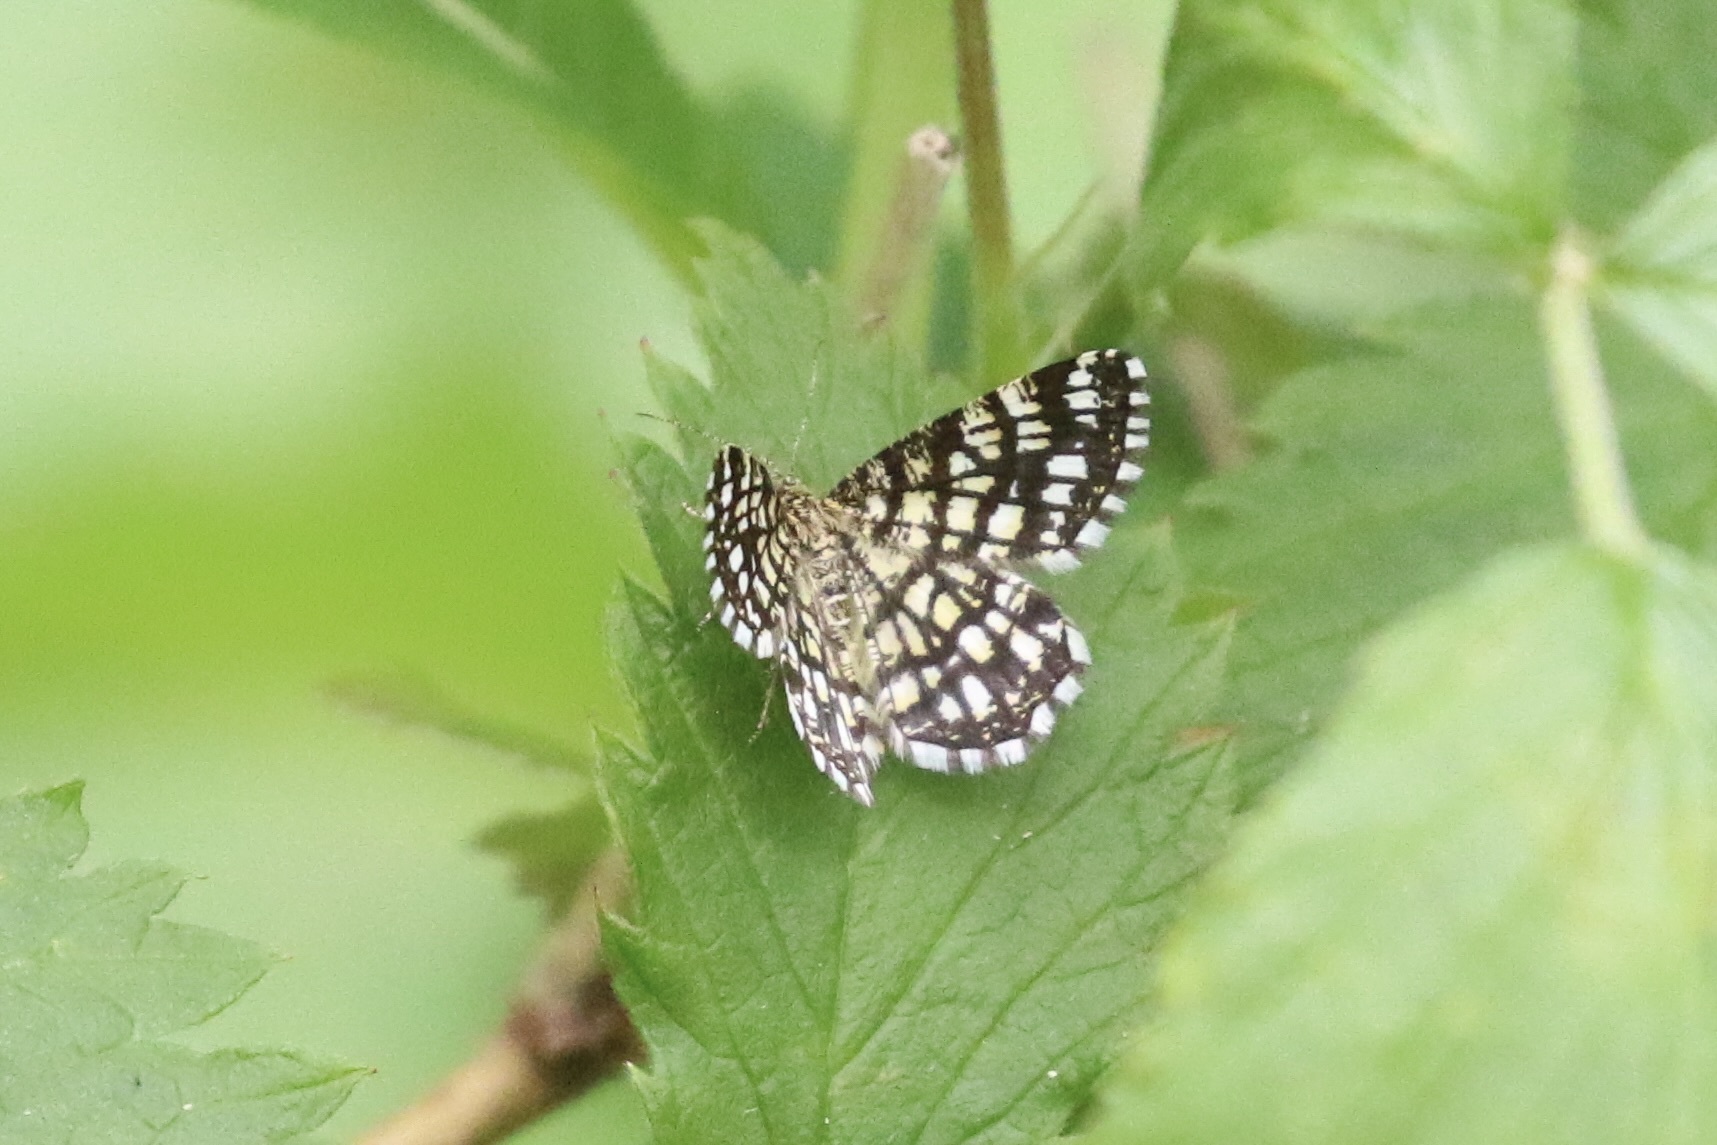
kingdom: Animalia
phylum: Arthropoda
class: Insecta
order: Lepidoptera
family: Geometridae
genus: Chiasmia
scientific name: Chiasmia clathrata
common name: Latticed heath
